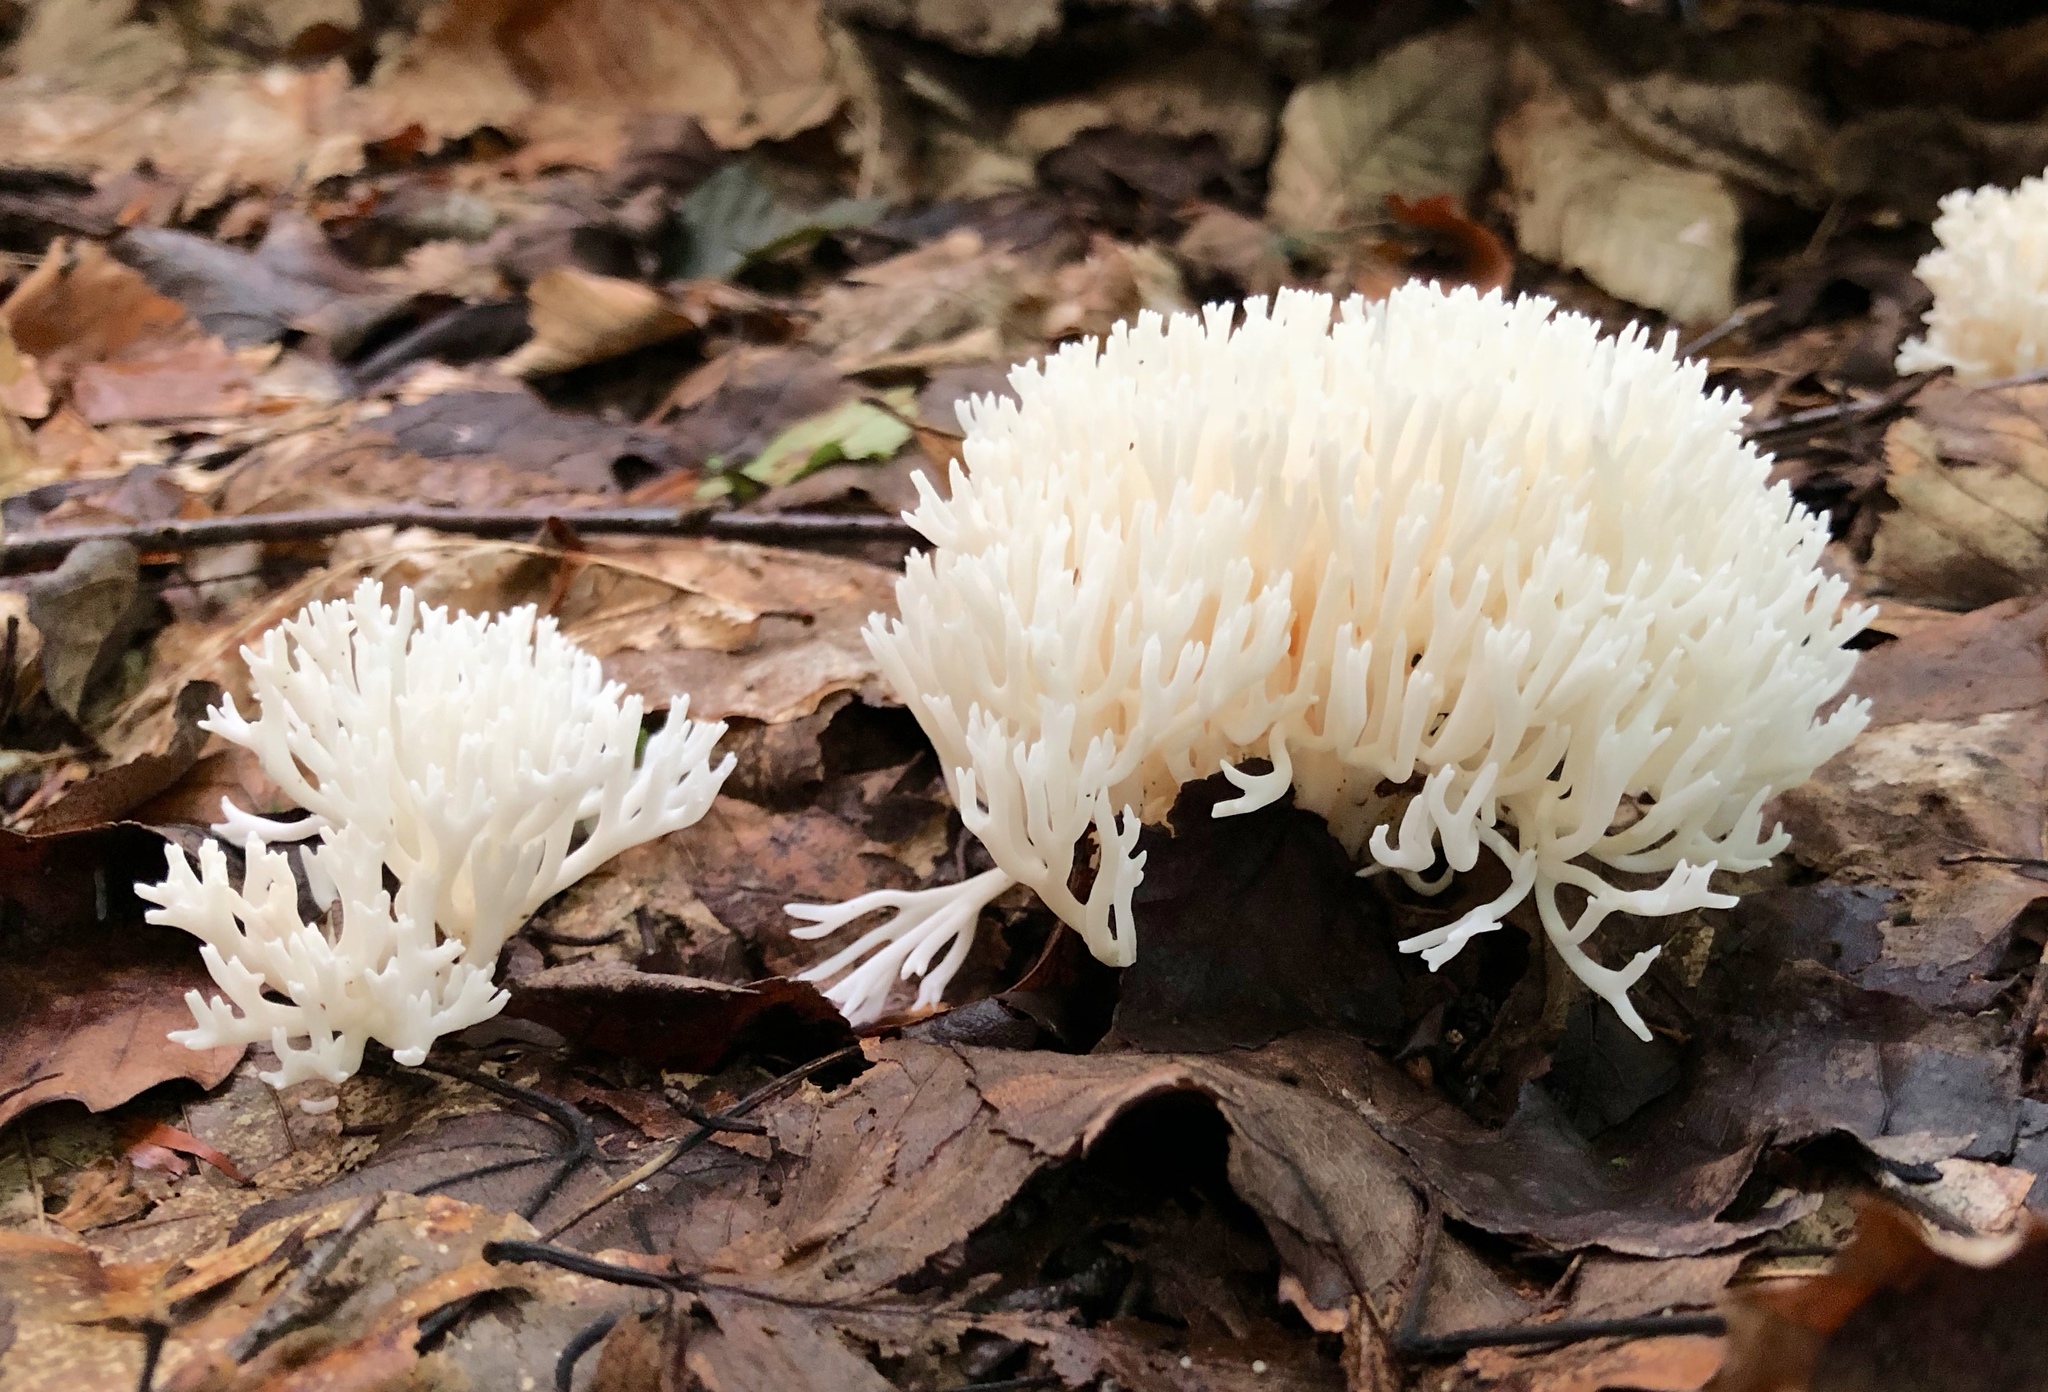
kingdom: Fungi
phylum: Basidiomycota
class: Agaricomycetes
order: Agaricales
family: Clavariaceae
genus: Ramariopsis
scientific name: Ramariopsis kunzei
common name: Ivory coral
